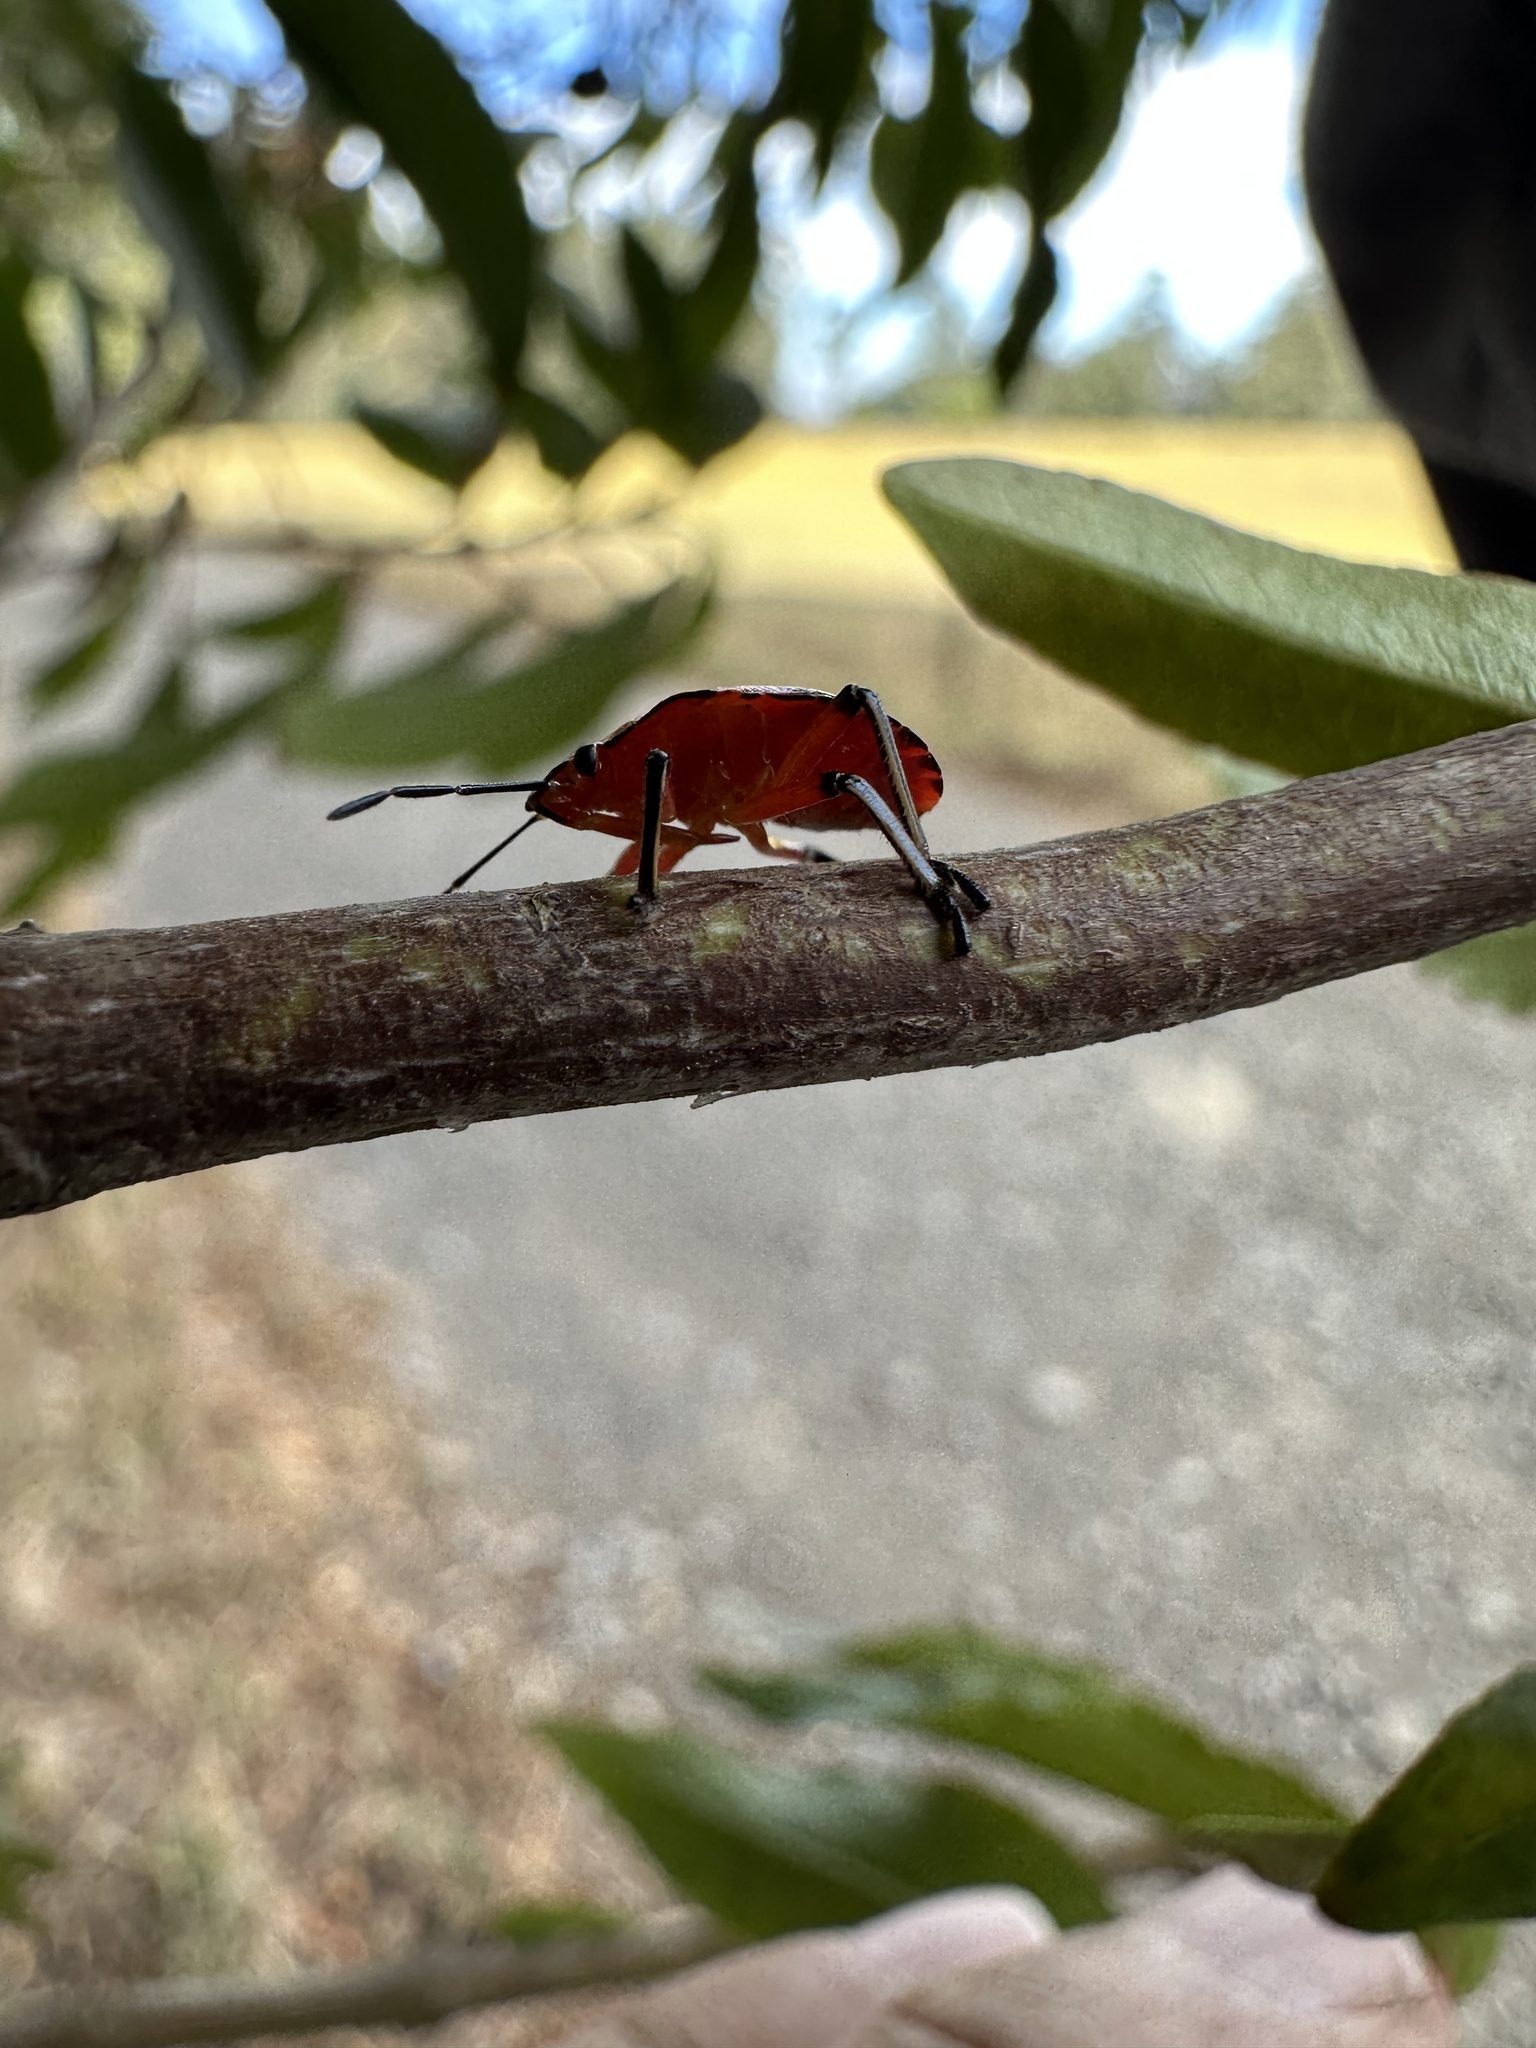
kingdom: Animalia
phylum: Arthropoda
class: Insecta
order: Hemiptera
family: Pentatomidae
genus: Brontocoris
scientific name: Brontocoris
